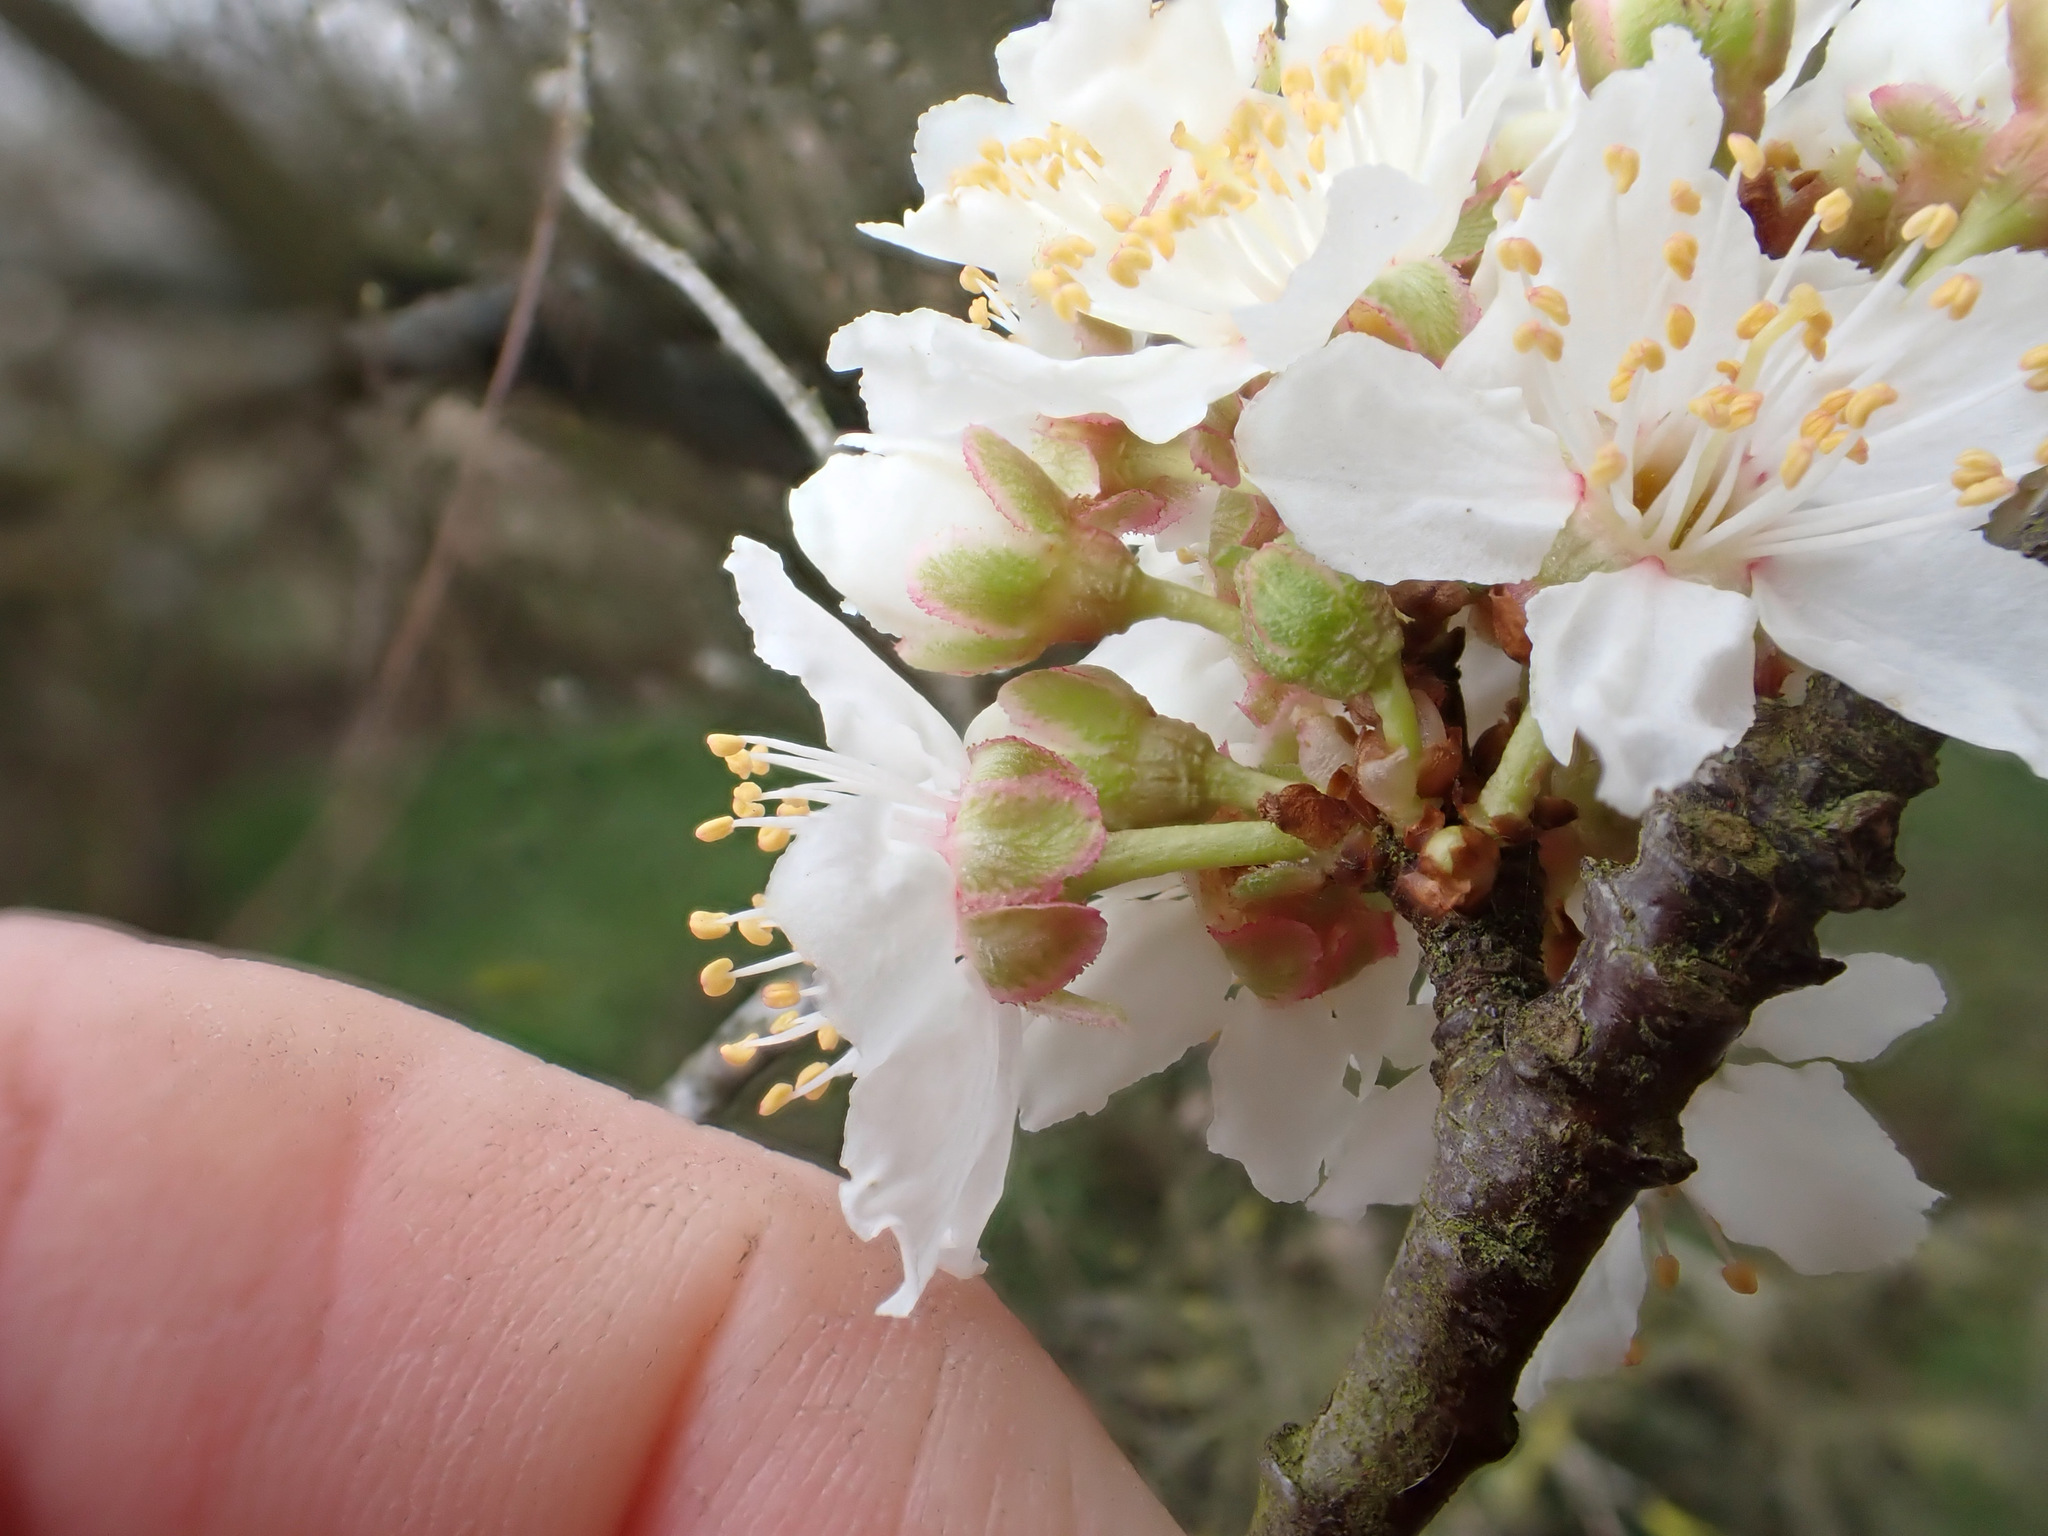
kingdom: Plantae
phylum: Tracheophyta
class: Magnoliopsida
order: Rosales
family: Rosaceae
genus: Prunus
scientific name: Prunus cerasifera
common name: Cherry plum
